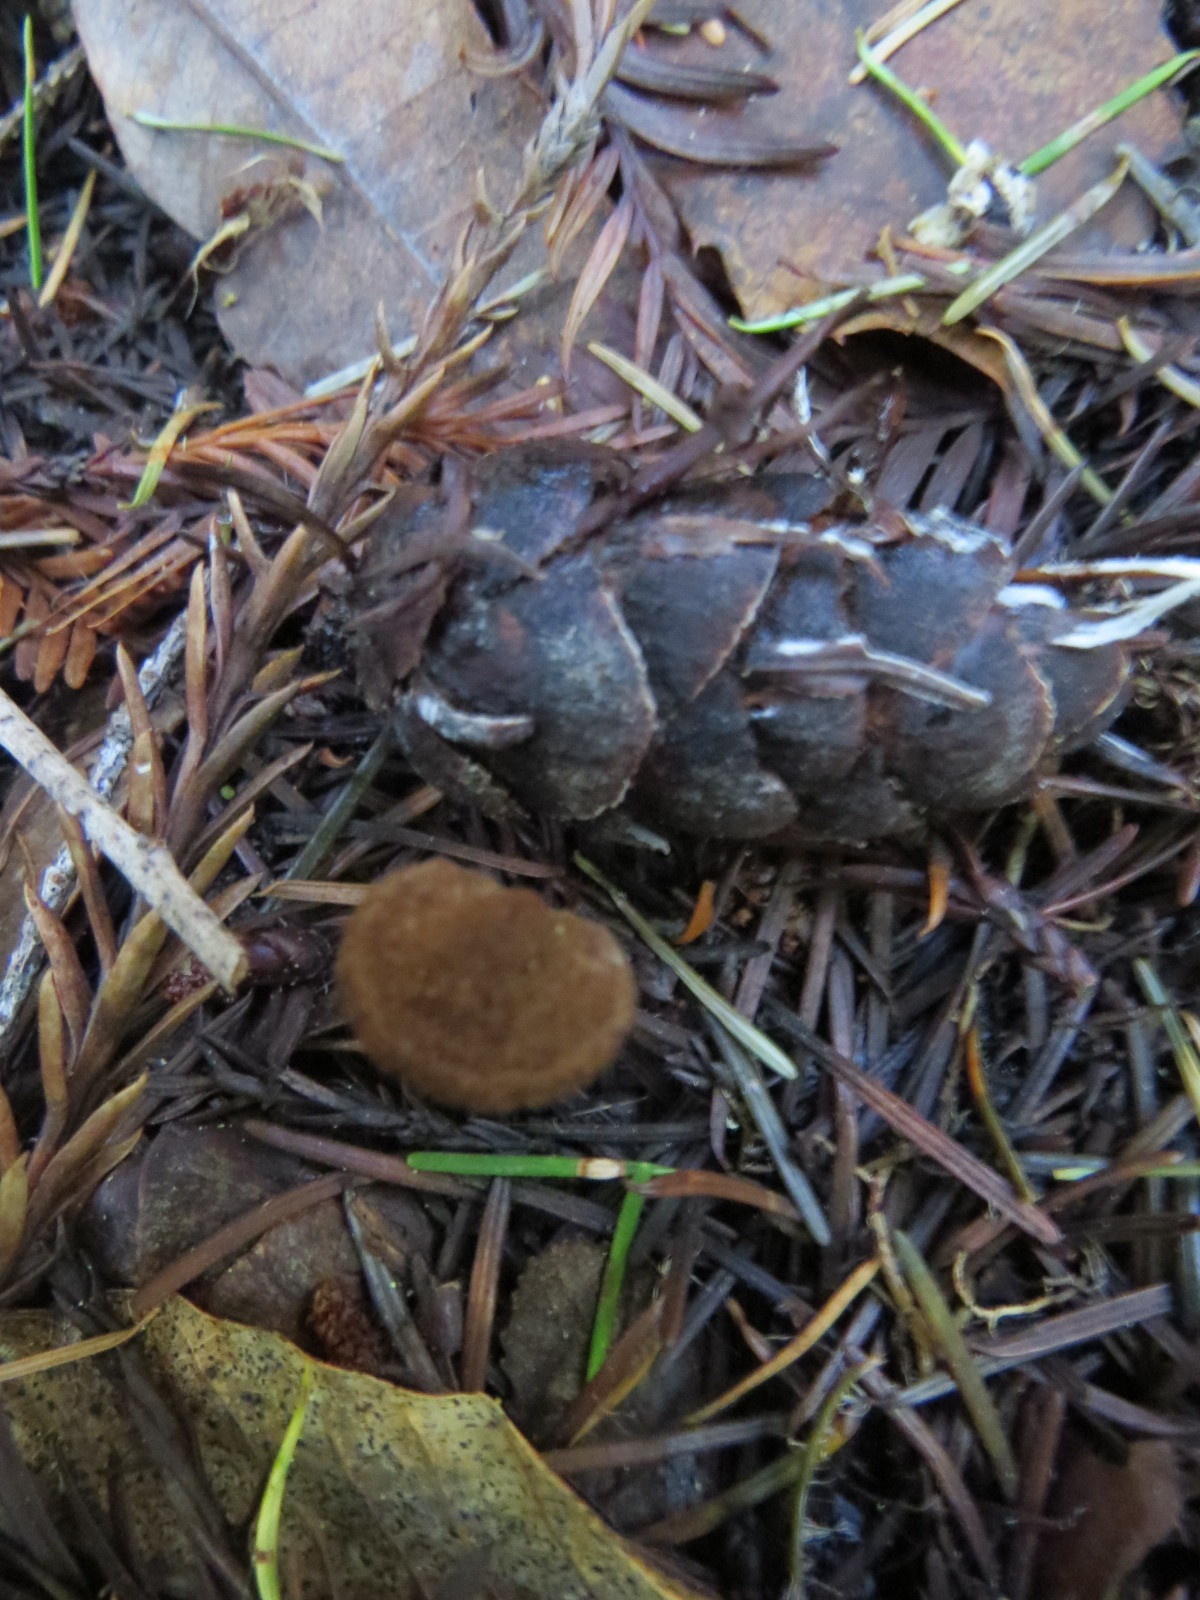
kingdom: Fungi
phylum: Basidiomycota
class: Agaricomycetes
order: Russulales
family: Auriscalpiaceae
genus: Auriscalpium
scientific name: Auriscalpium vulgare
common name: Earpick fungus
